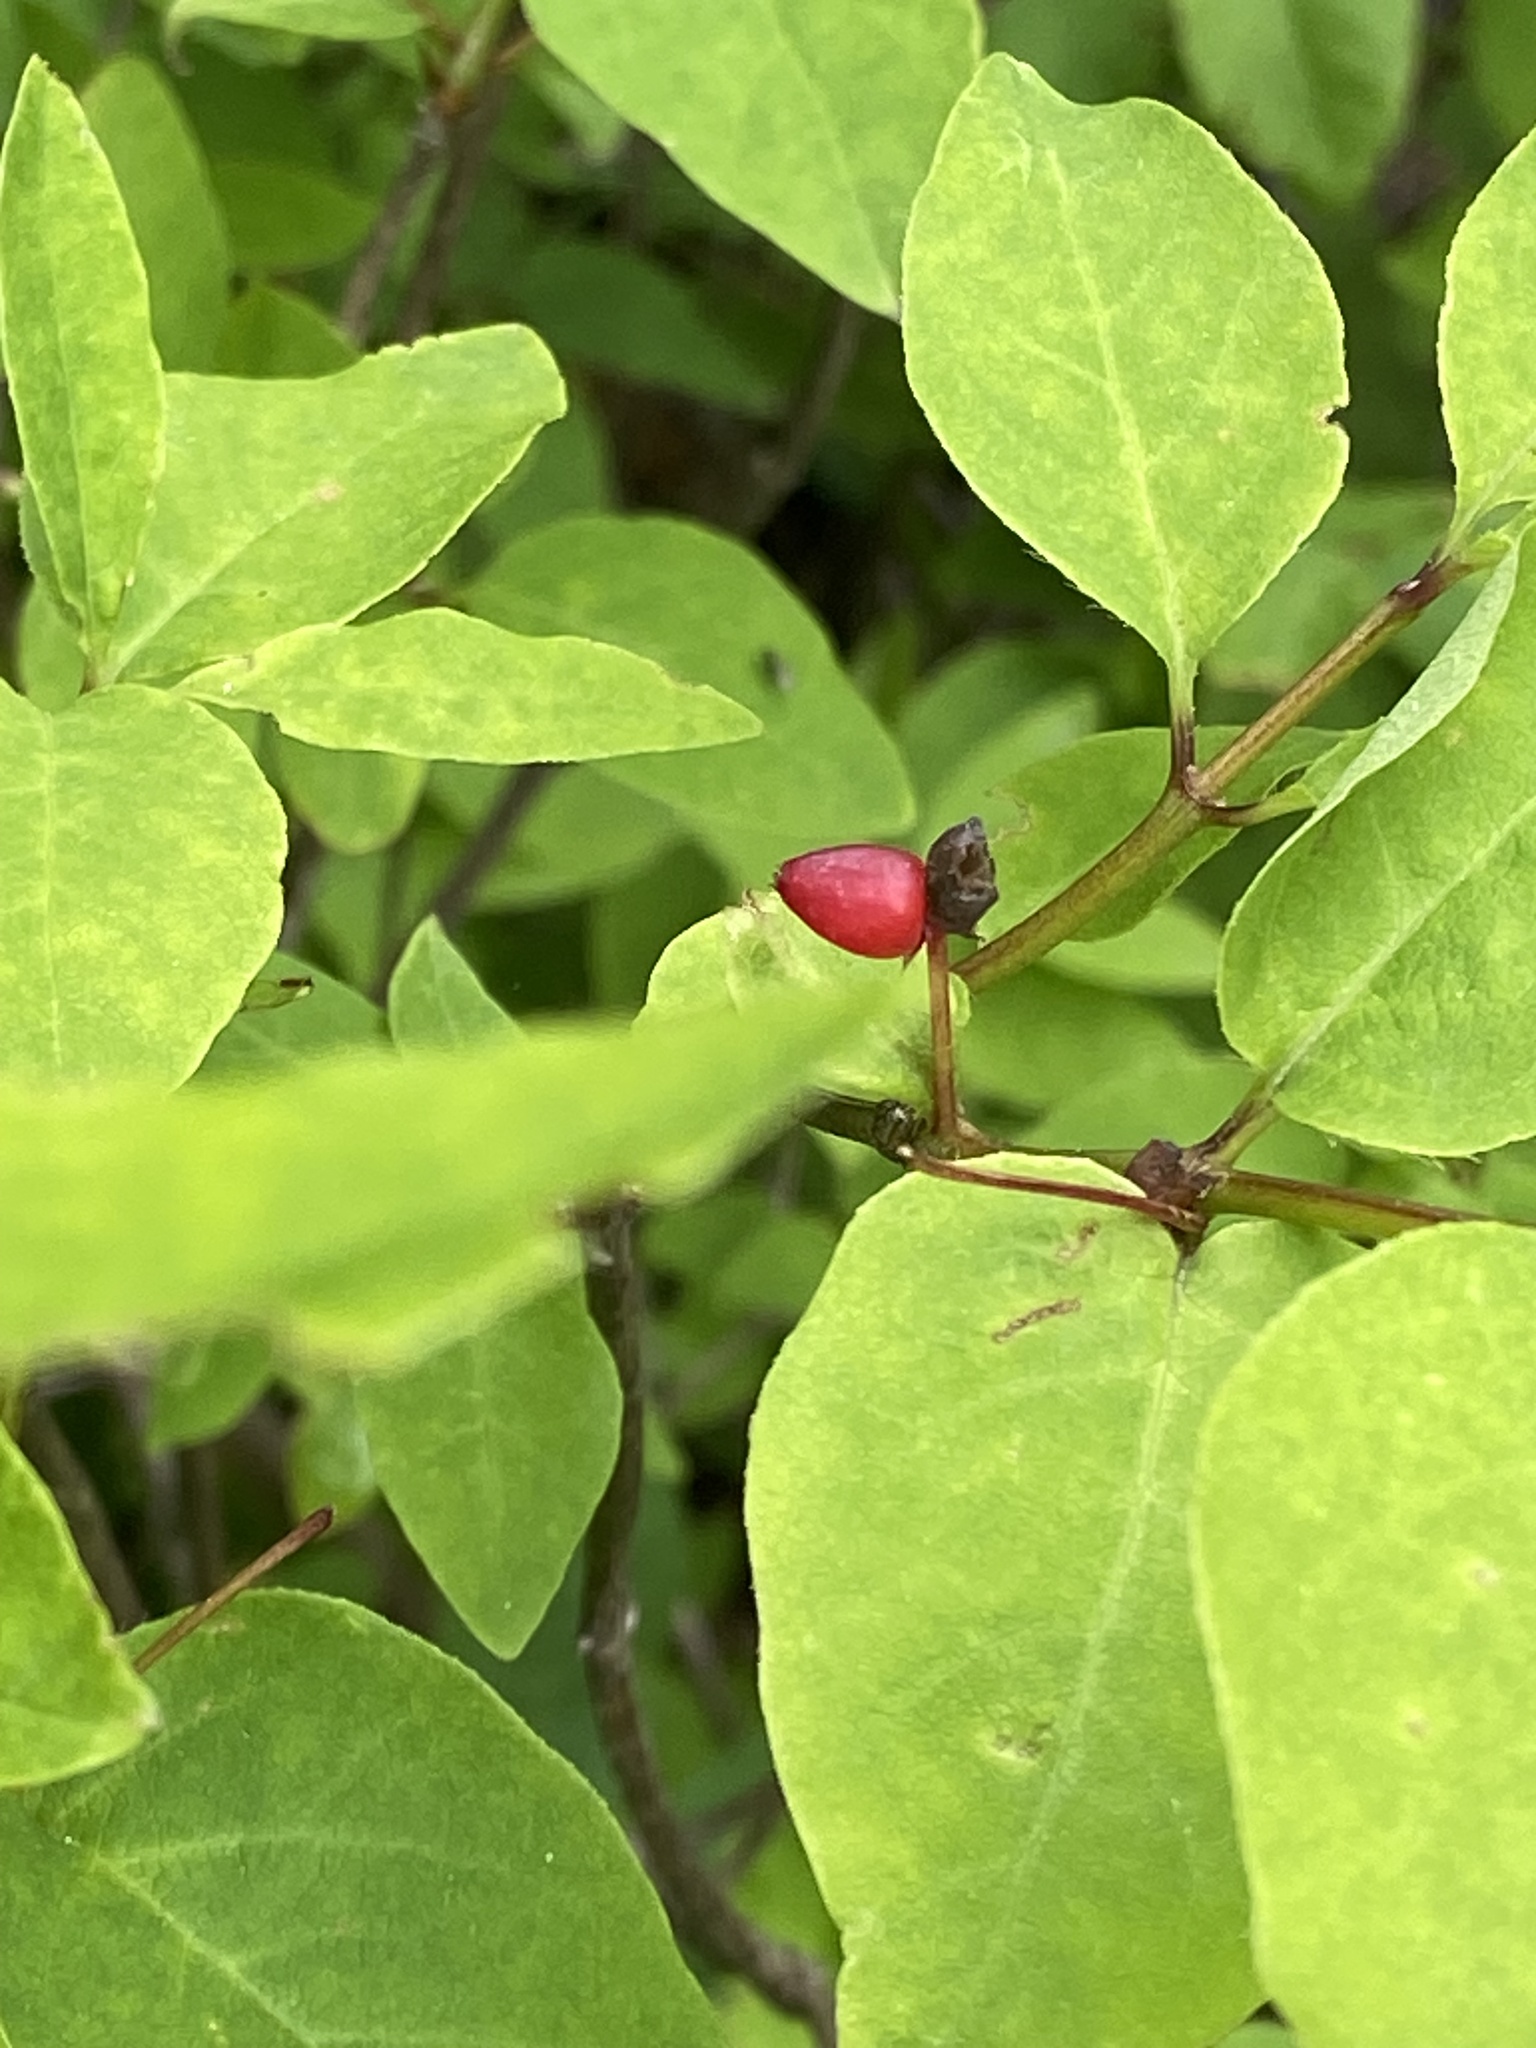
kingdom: Plantae
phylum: Tracheophyta
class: Magnoliopsida
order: Dipsacales
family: Caprifoliaceae
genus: Lonicera
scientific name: Lonicera canadensis
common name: American fly-honeysuckle
